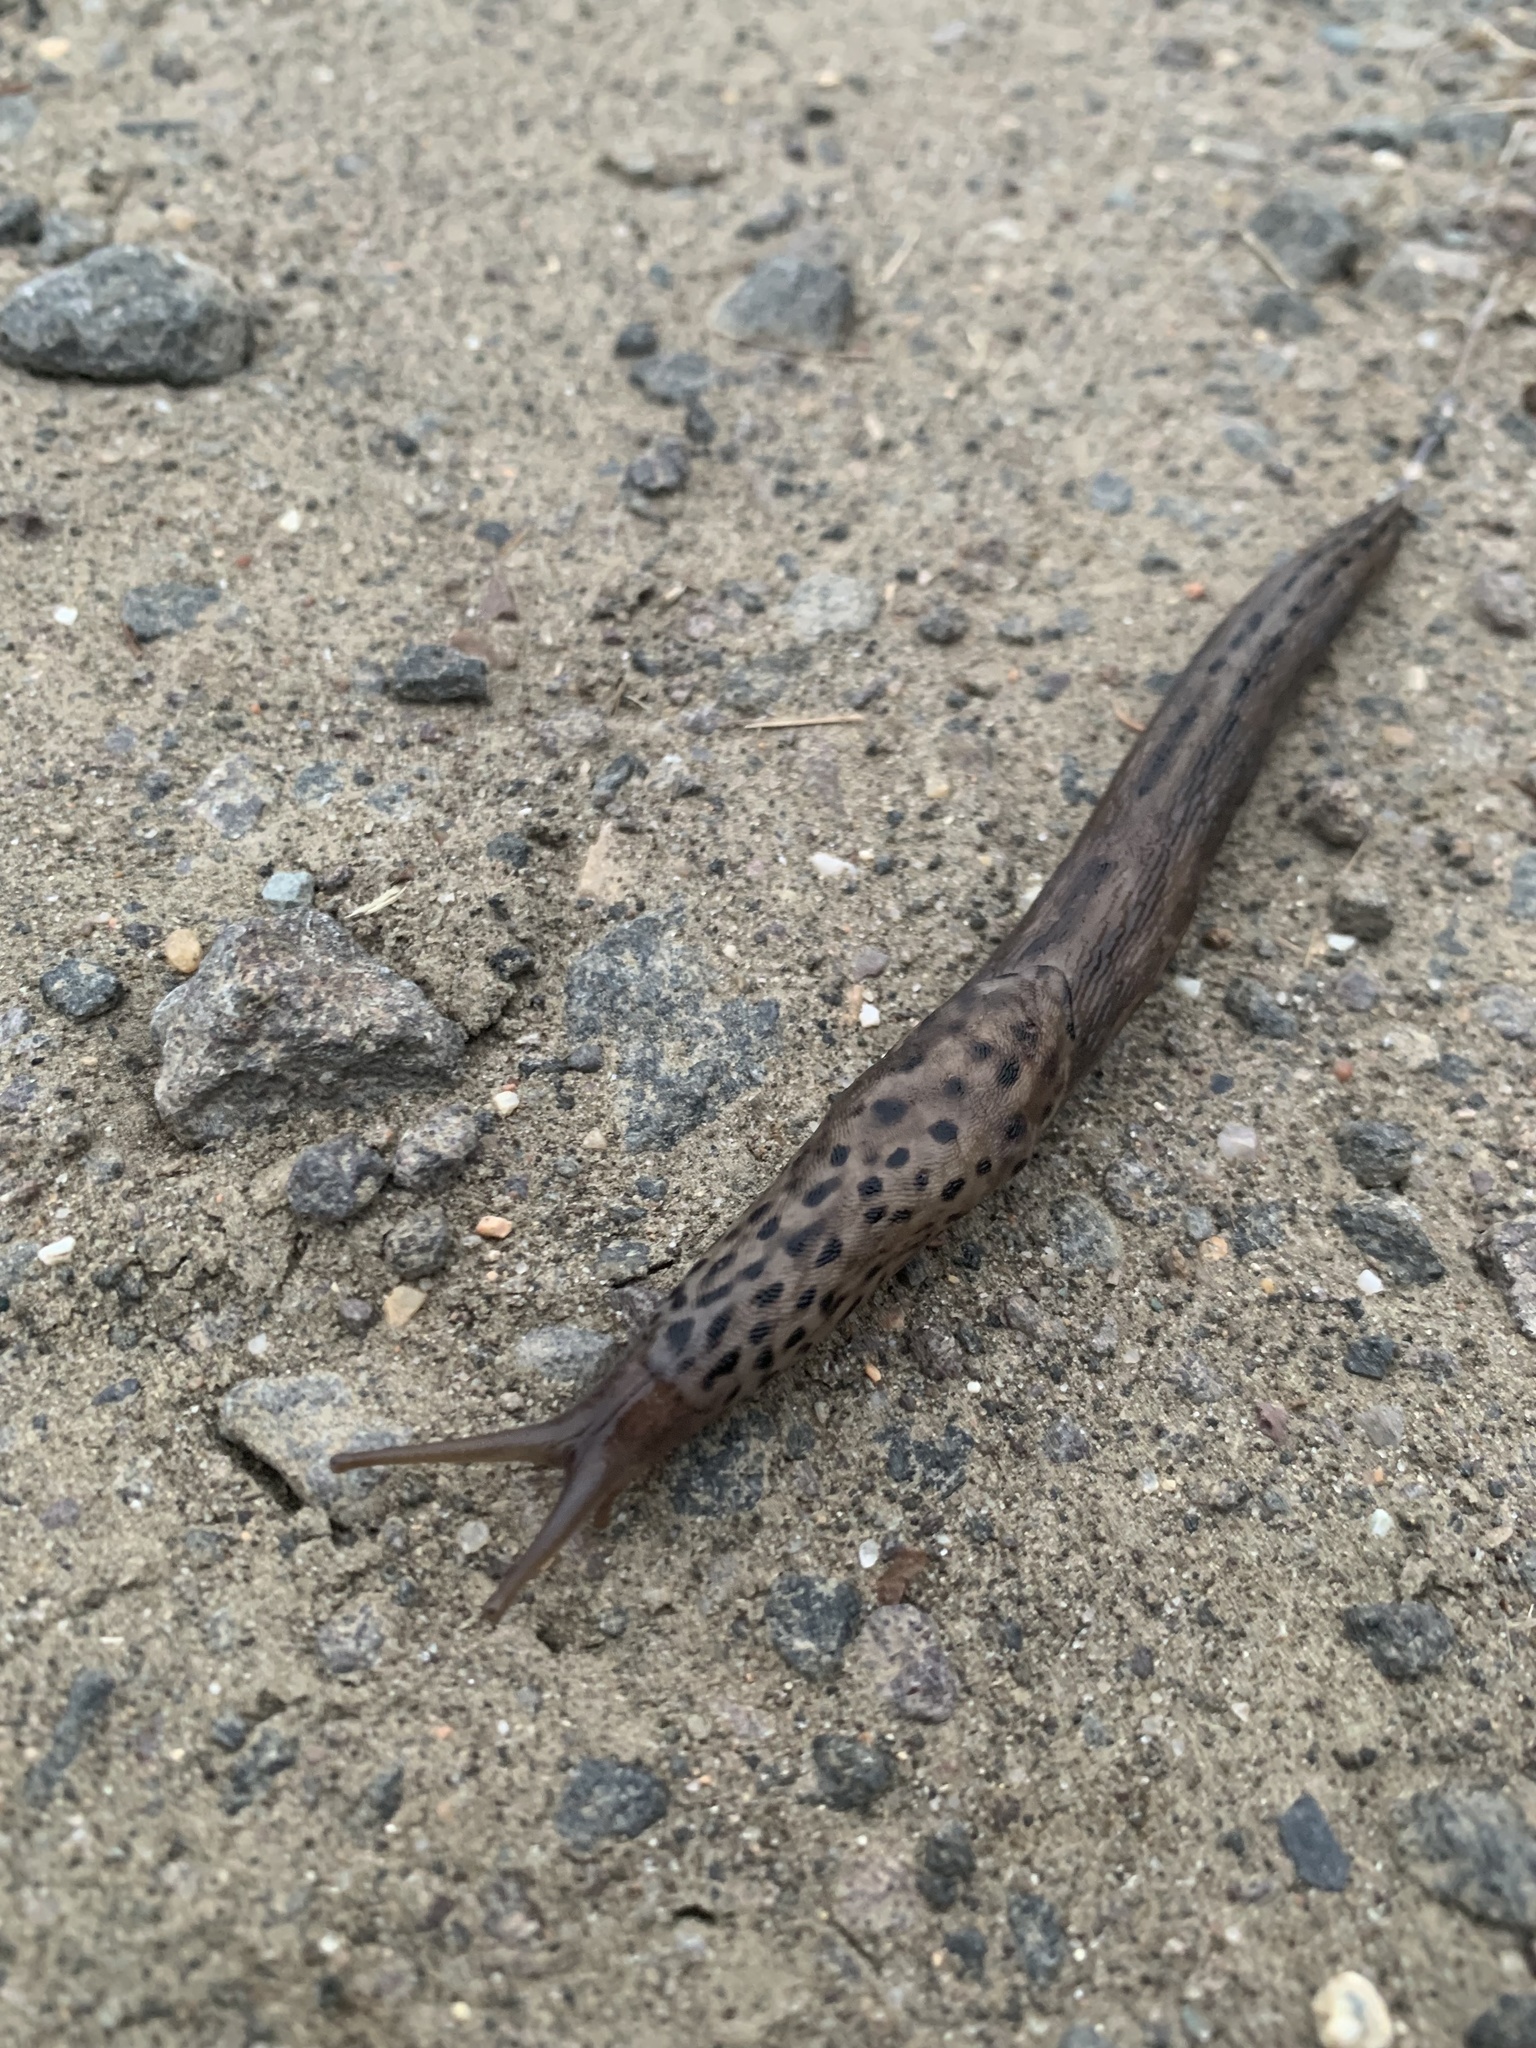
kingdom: Animalia
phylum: Mollusca
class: Gastropoda
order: Stylommatophora
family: Limacidae
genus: Limax
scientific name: Limax maximus
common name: Great grey slug
